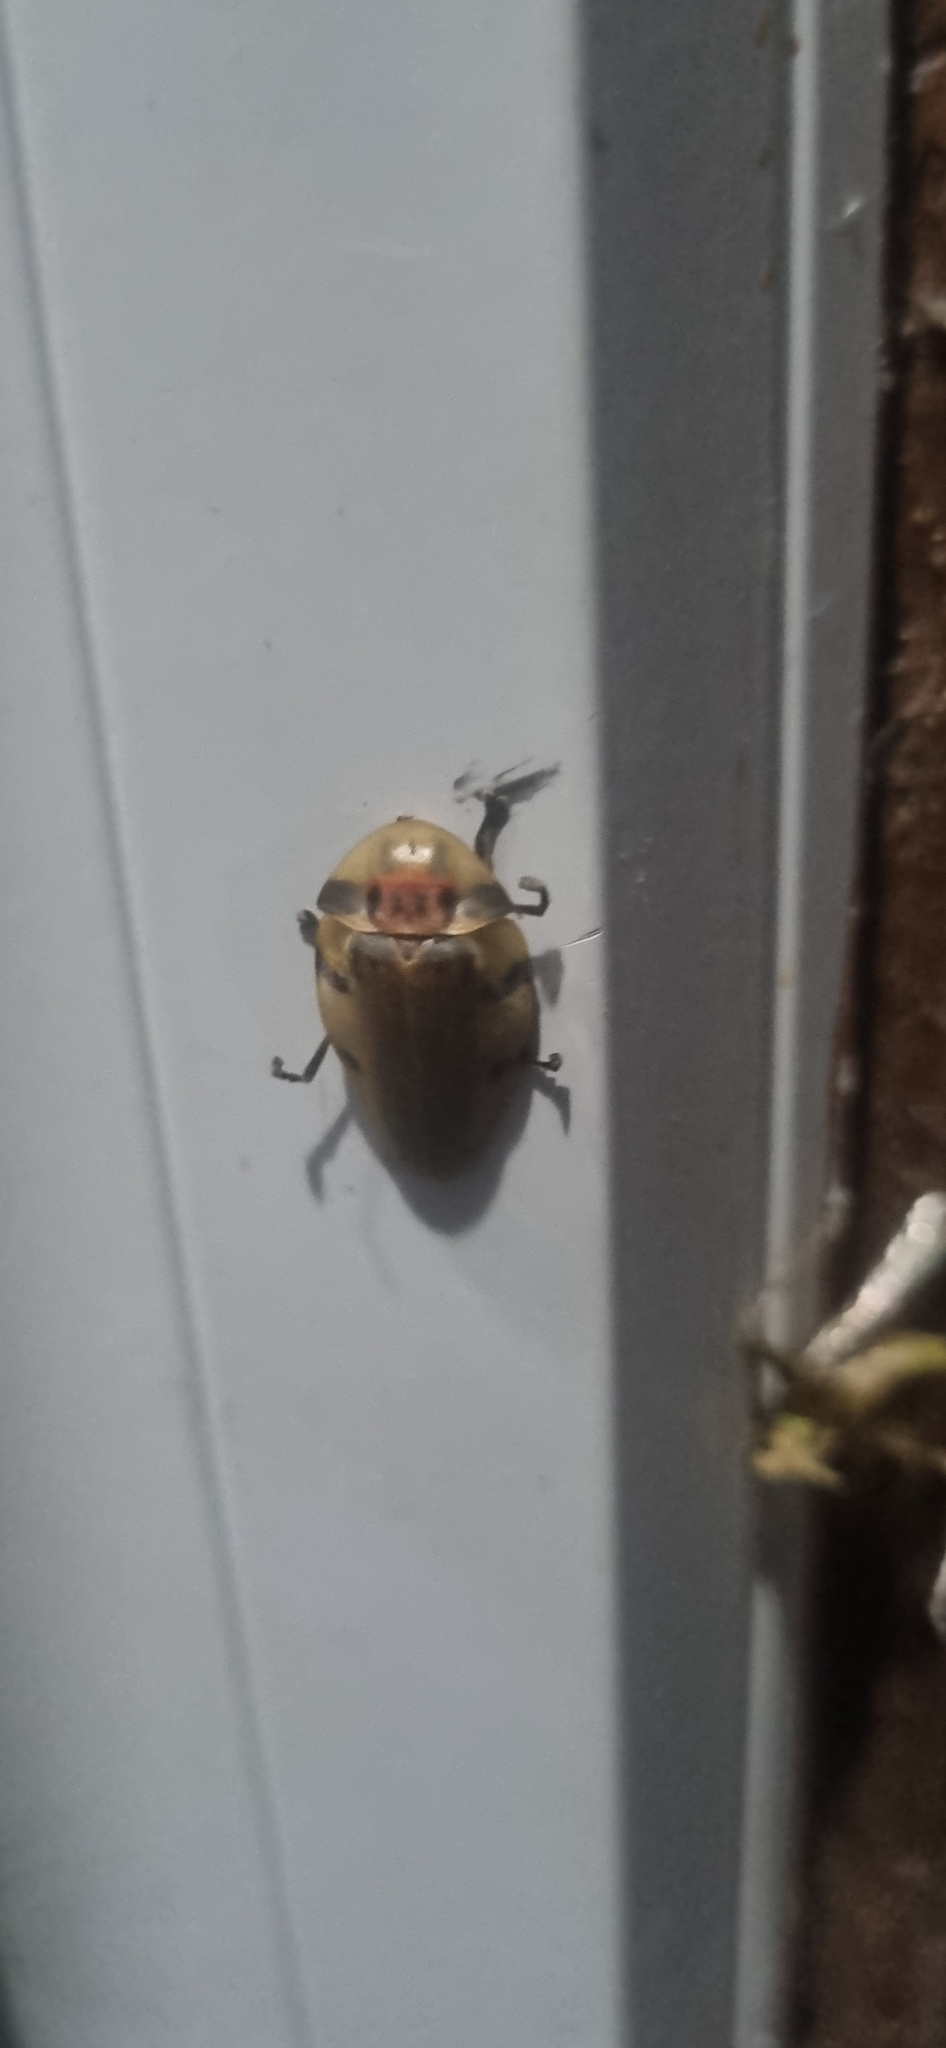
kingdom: Animalia
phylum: Arthropoda
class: Insecta
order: Coleoptera
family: Lampyridae
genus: Aspisoma
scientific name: Aspisoma sticticum
